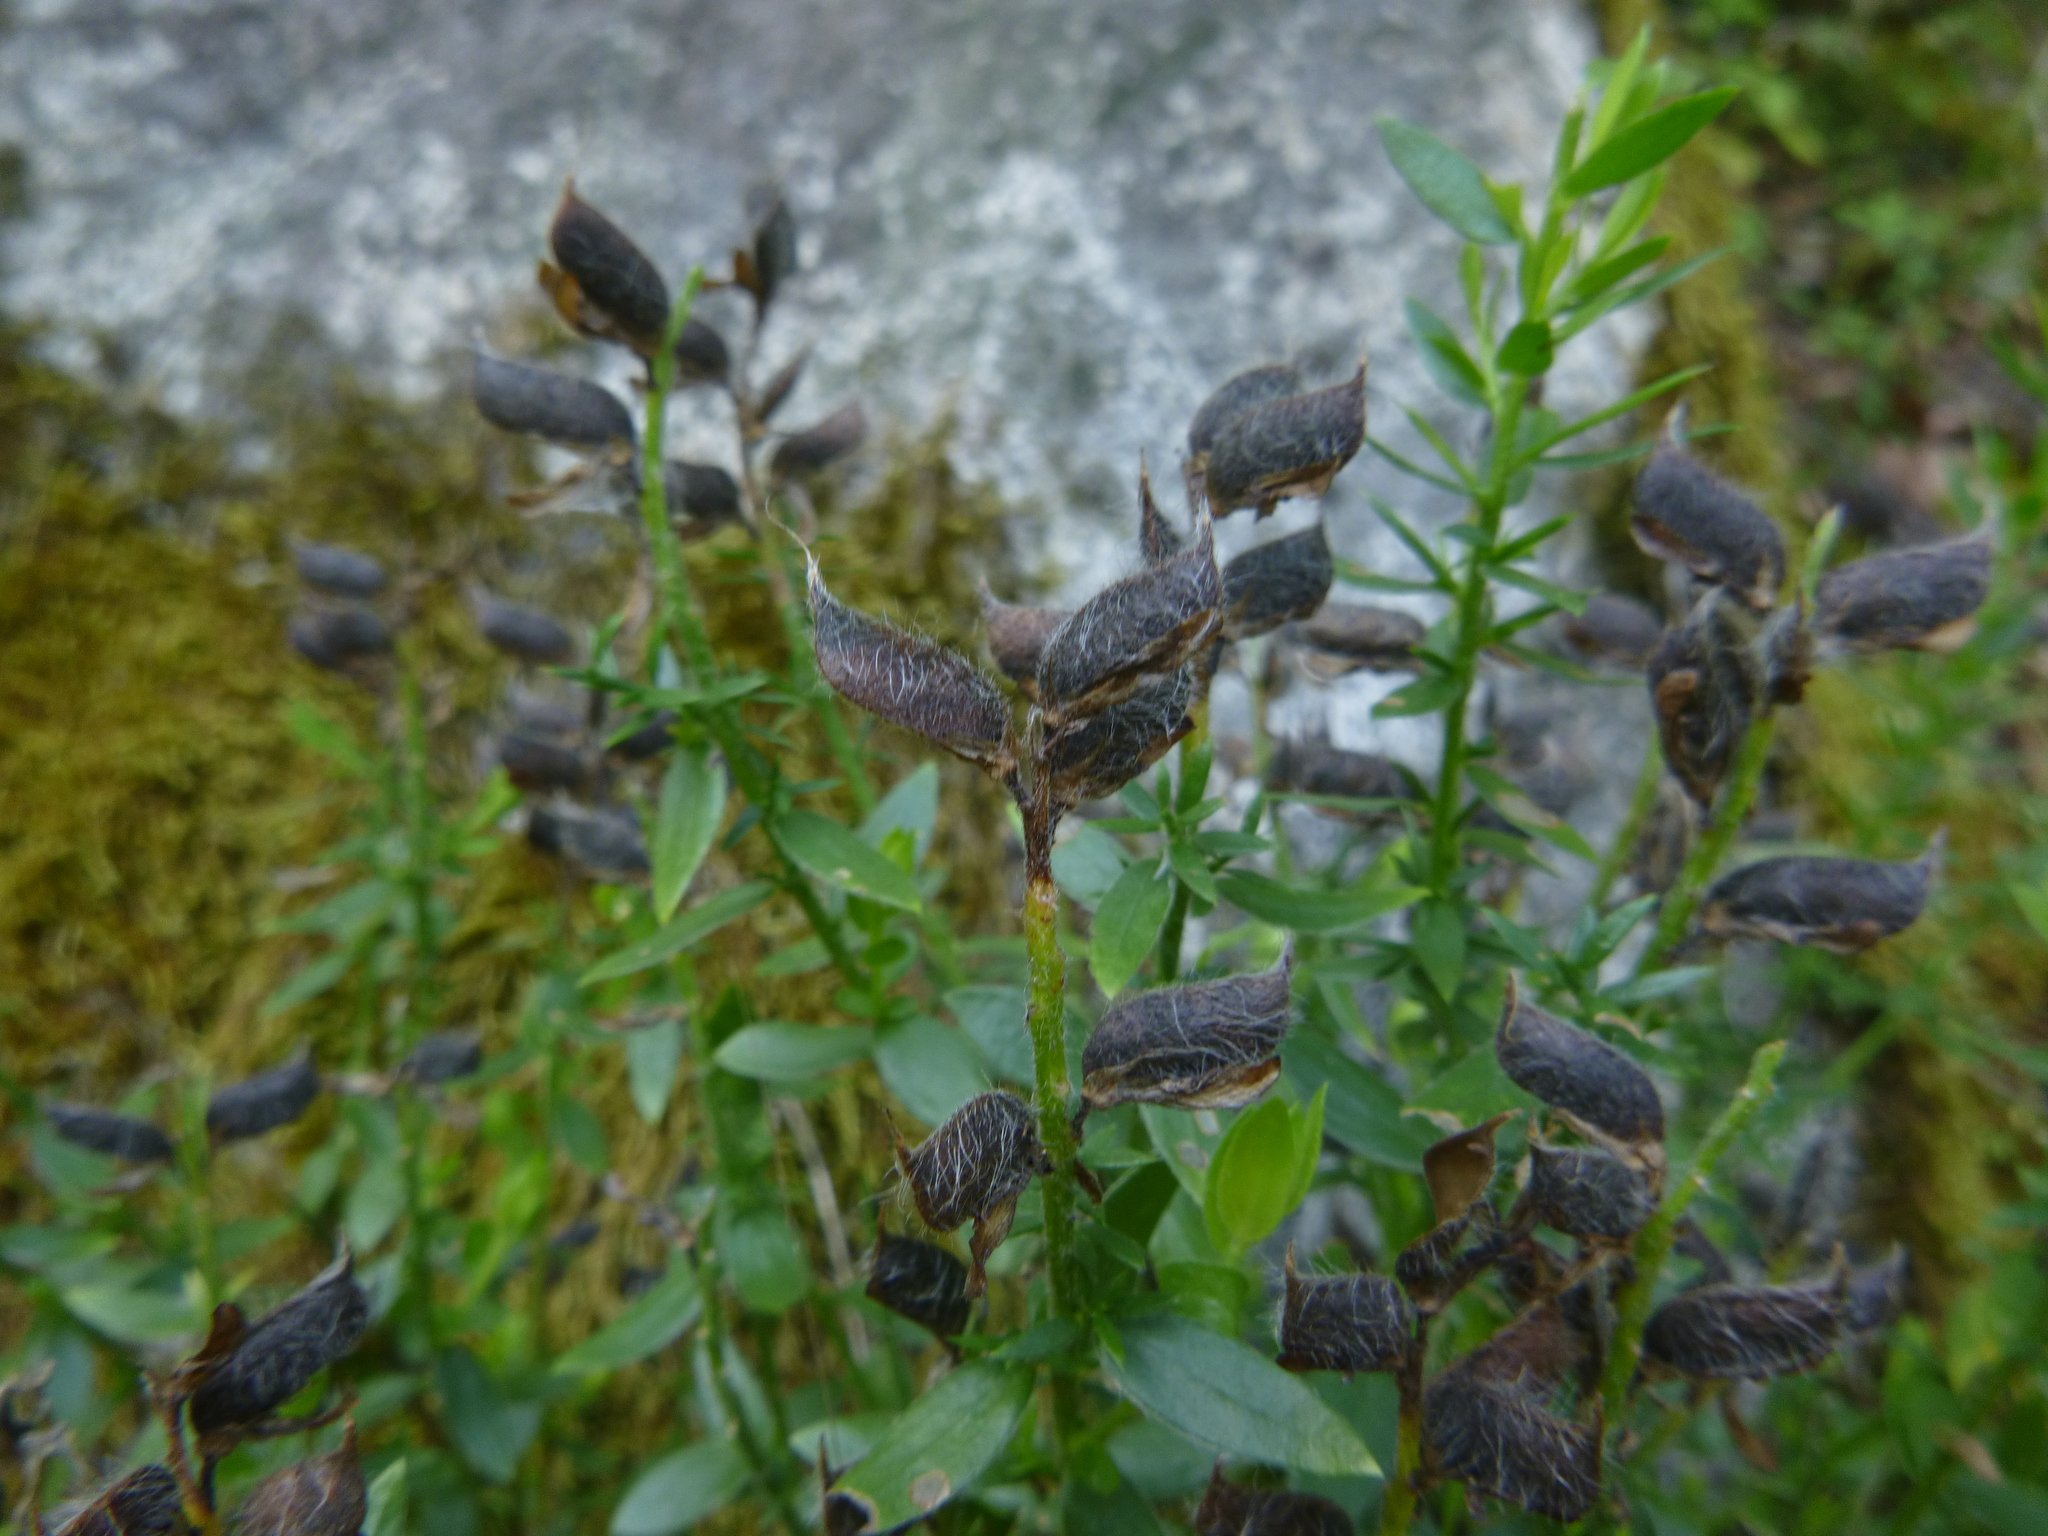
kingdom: Plantae
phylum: Tracheophyta
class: Magnoliopsida
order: Fabales
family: Fabaceae
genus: Genista
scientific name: Genista germanica
